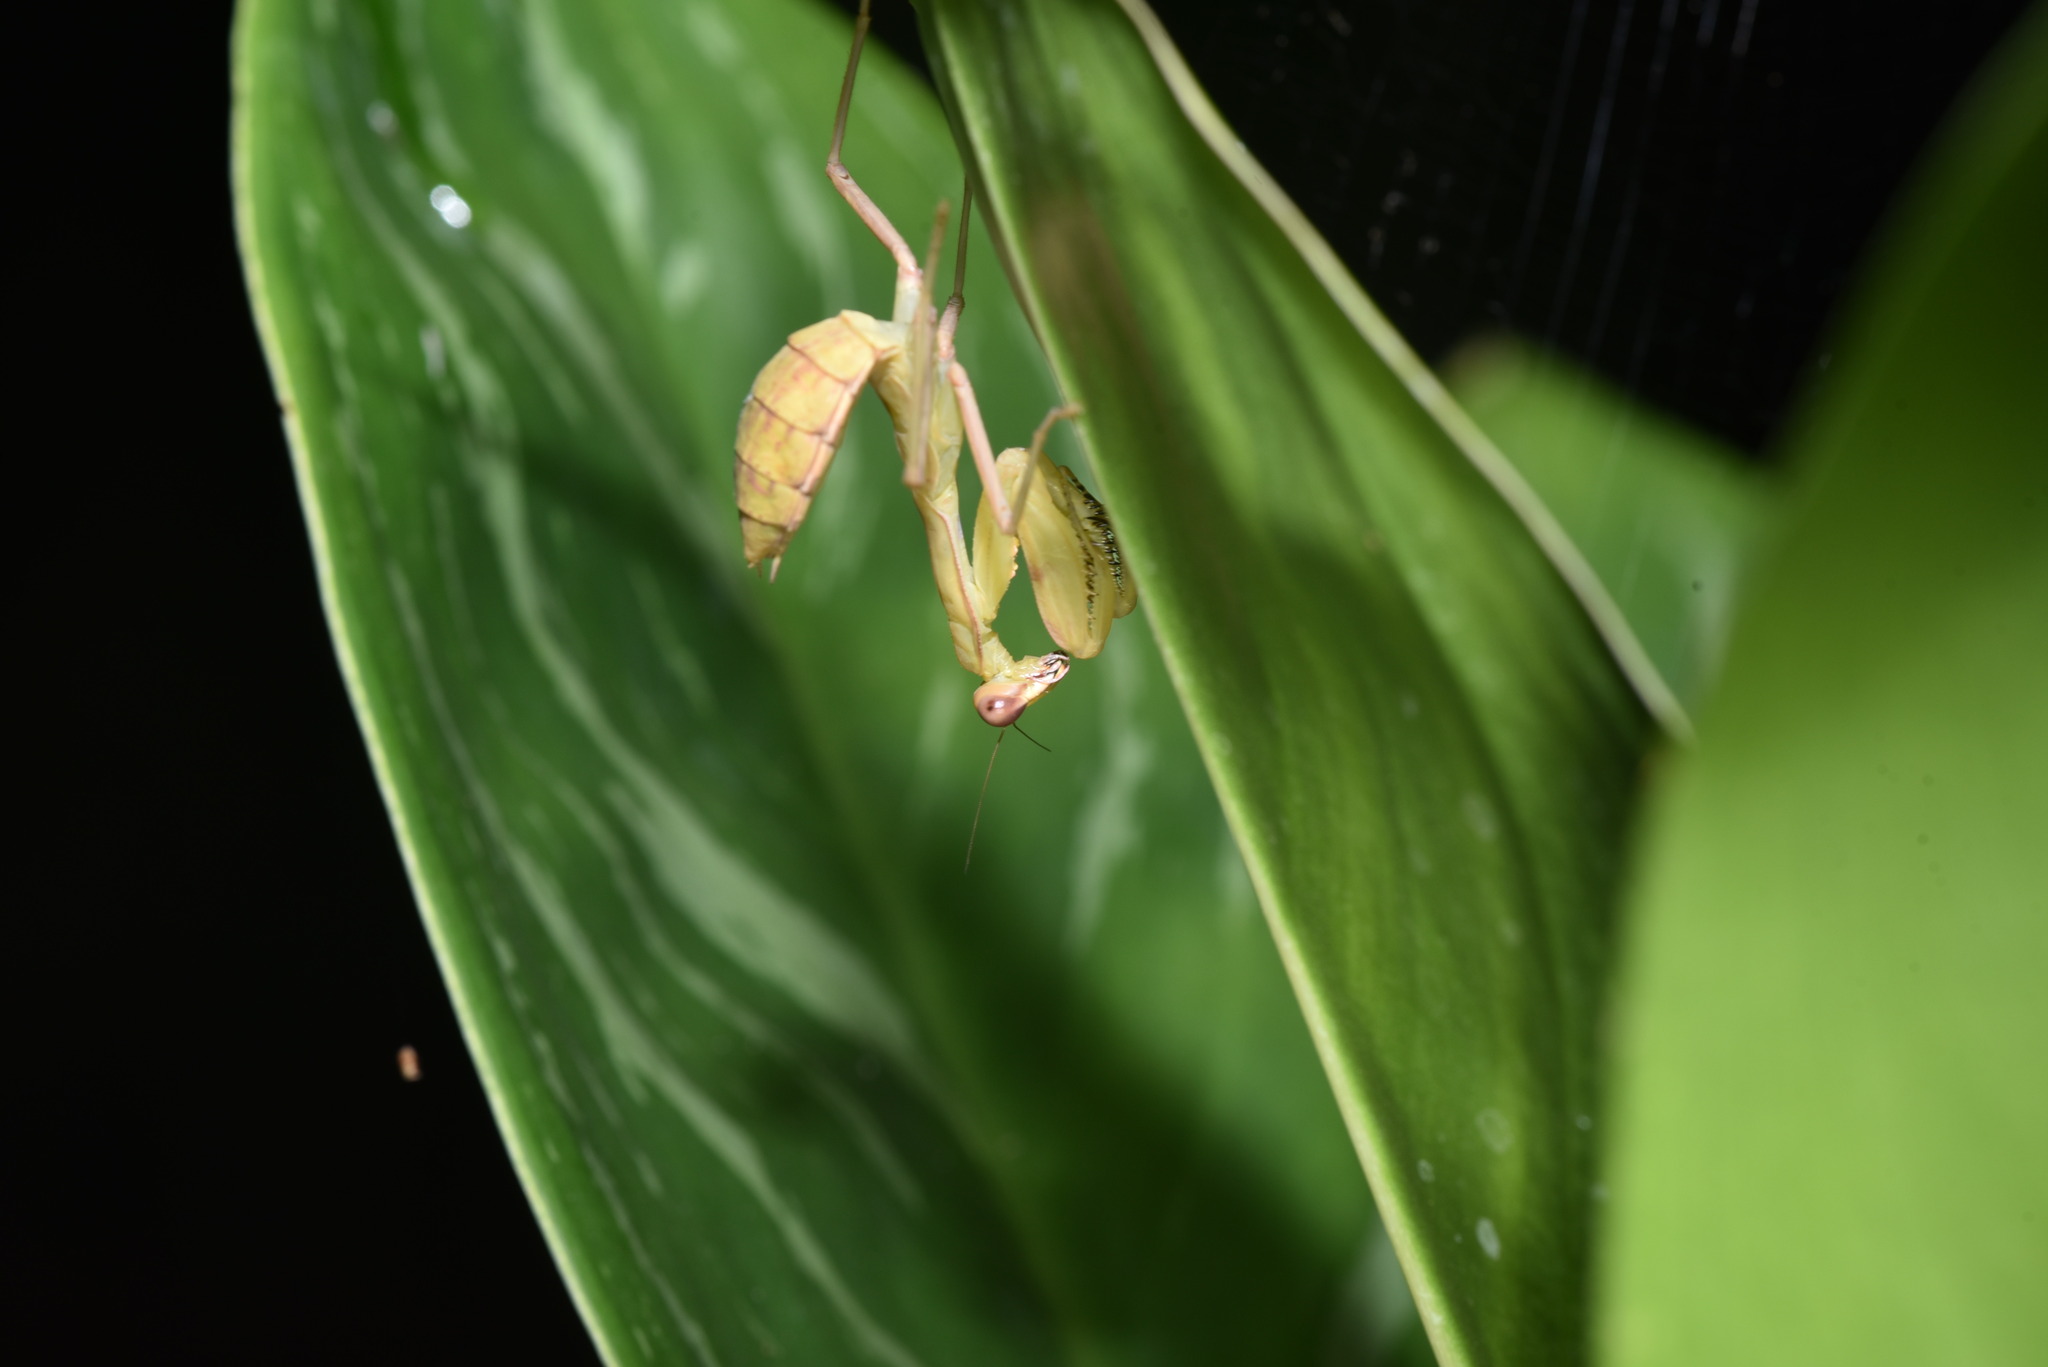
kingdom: Animalia
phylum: Arthropoda
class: Insecta
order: Mantodea
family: Mantidae
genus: Hierodula
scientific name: Hierodula patellifera
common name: Asian mantis
